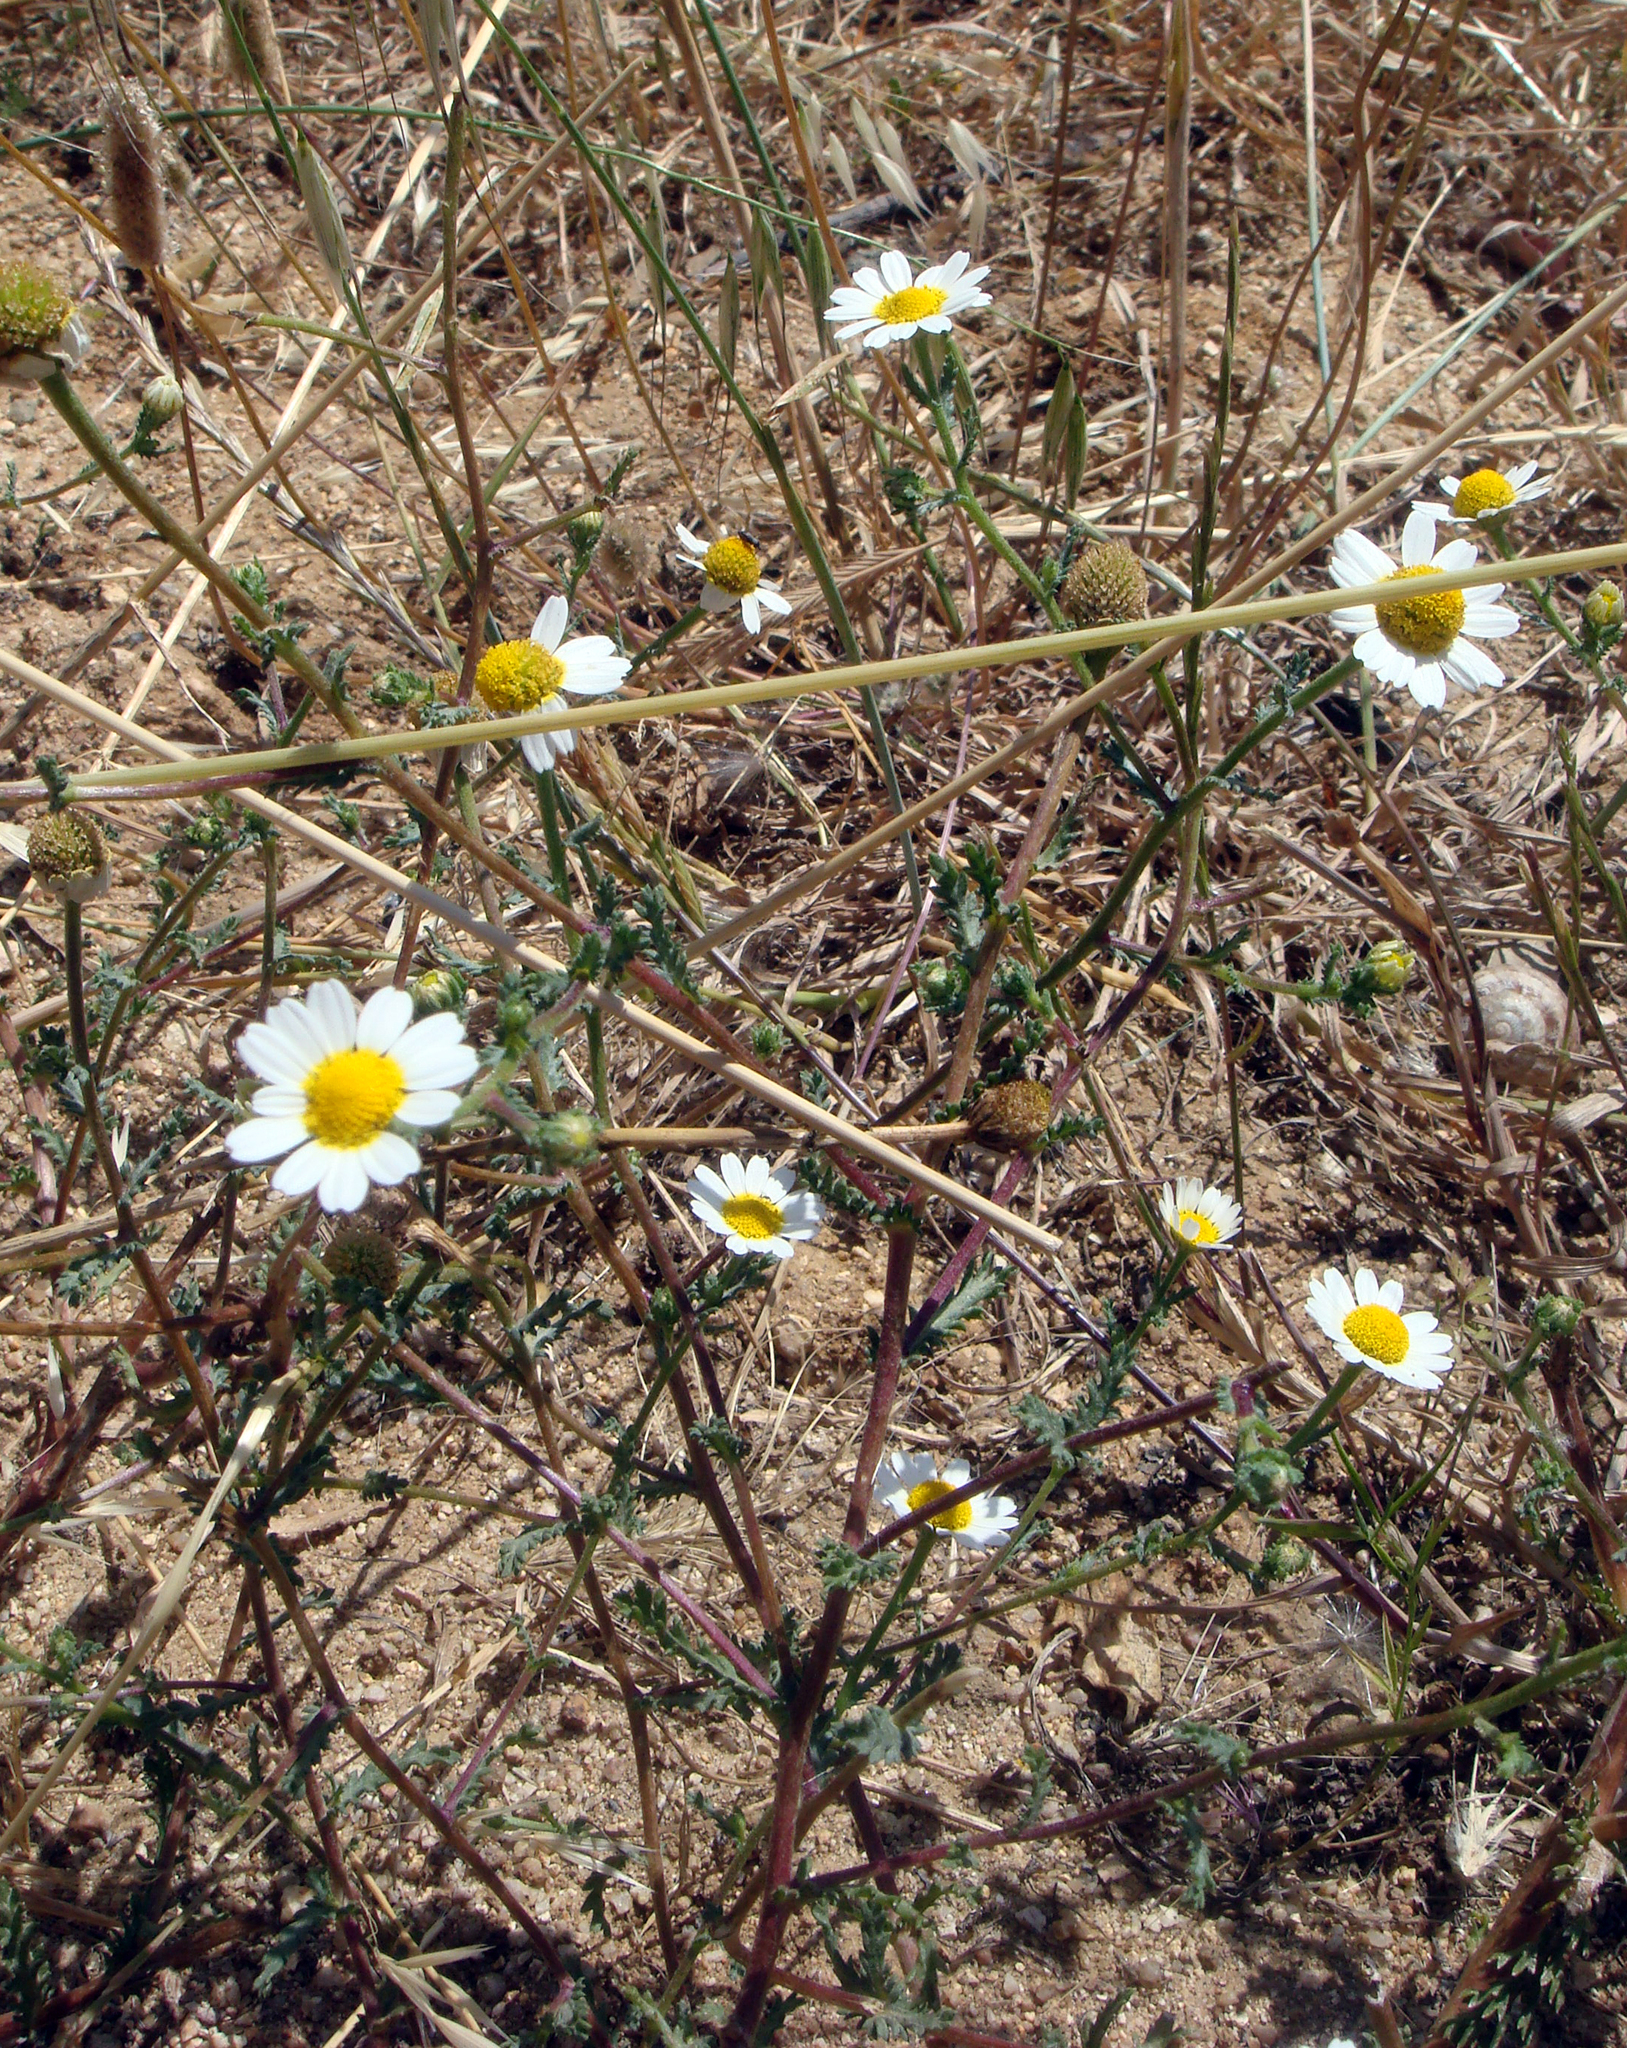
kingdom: Plantae
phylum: Tracheophyta
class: Magnoliopsida
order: Asterales
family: Asteraceae
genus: Cladanthus
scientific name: Cladanthus mixtus
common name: Weedy dogfennel
